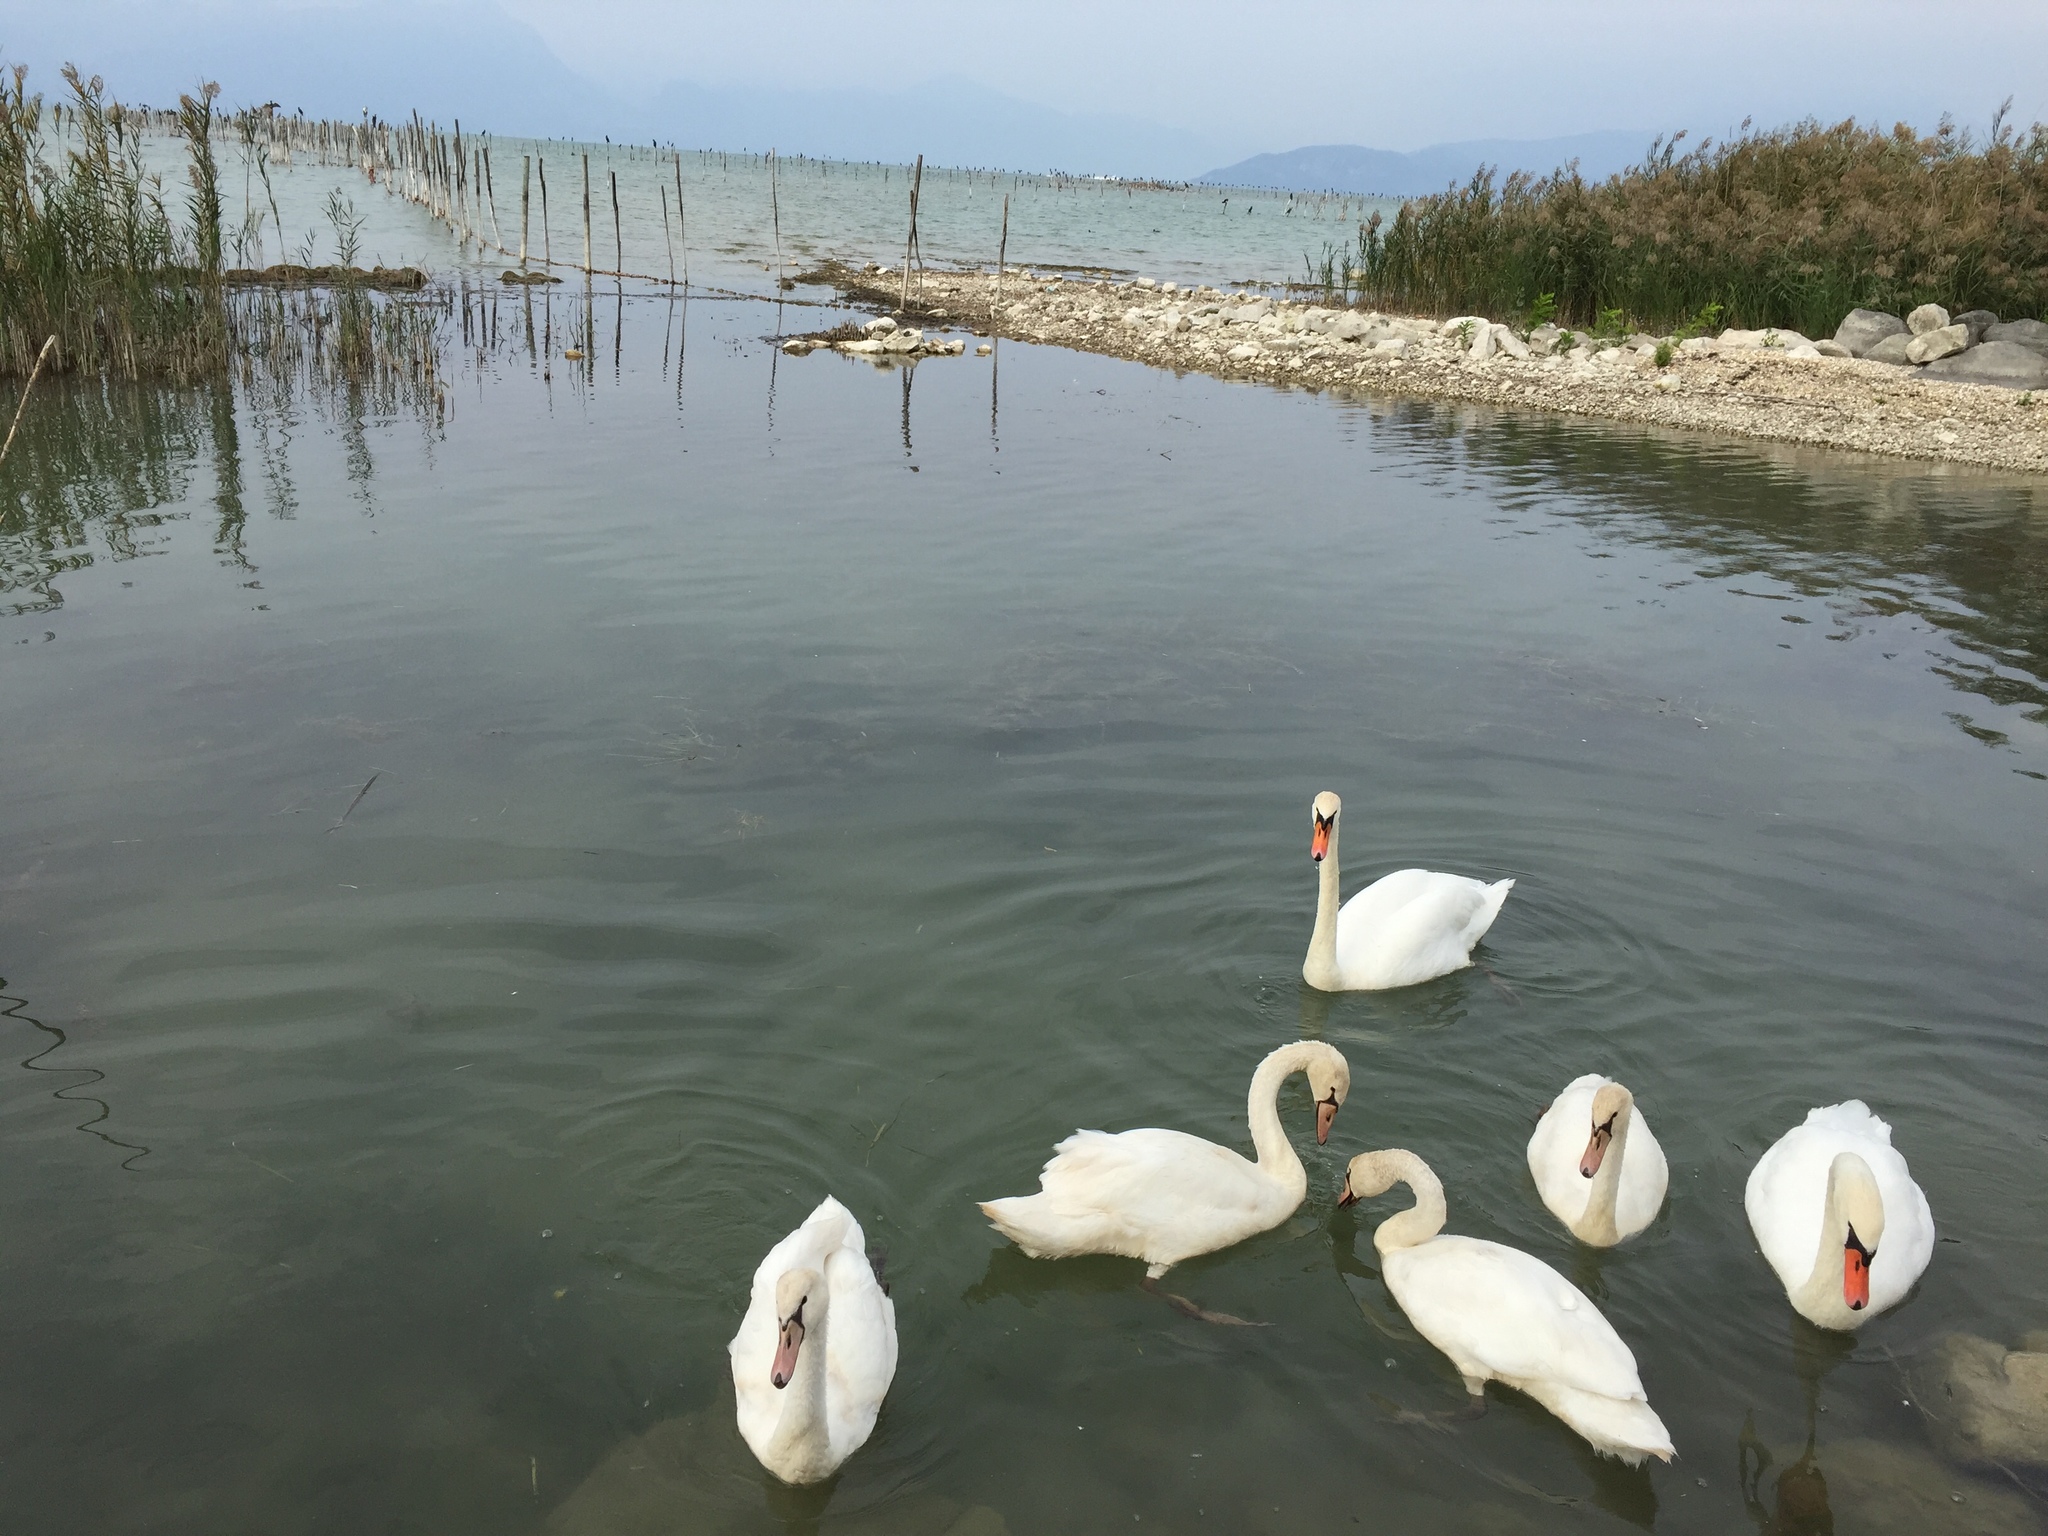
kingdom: Animalia
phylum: Chordata
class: Aves
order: Anseriformes
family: Anatidae
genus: Cygnus
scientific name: Cygnus olor
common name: Mute swan
